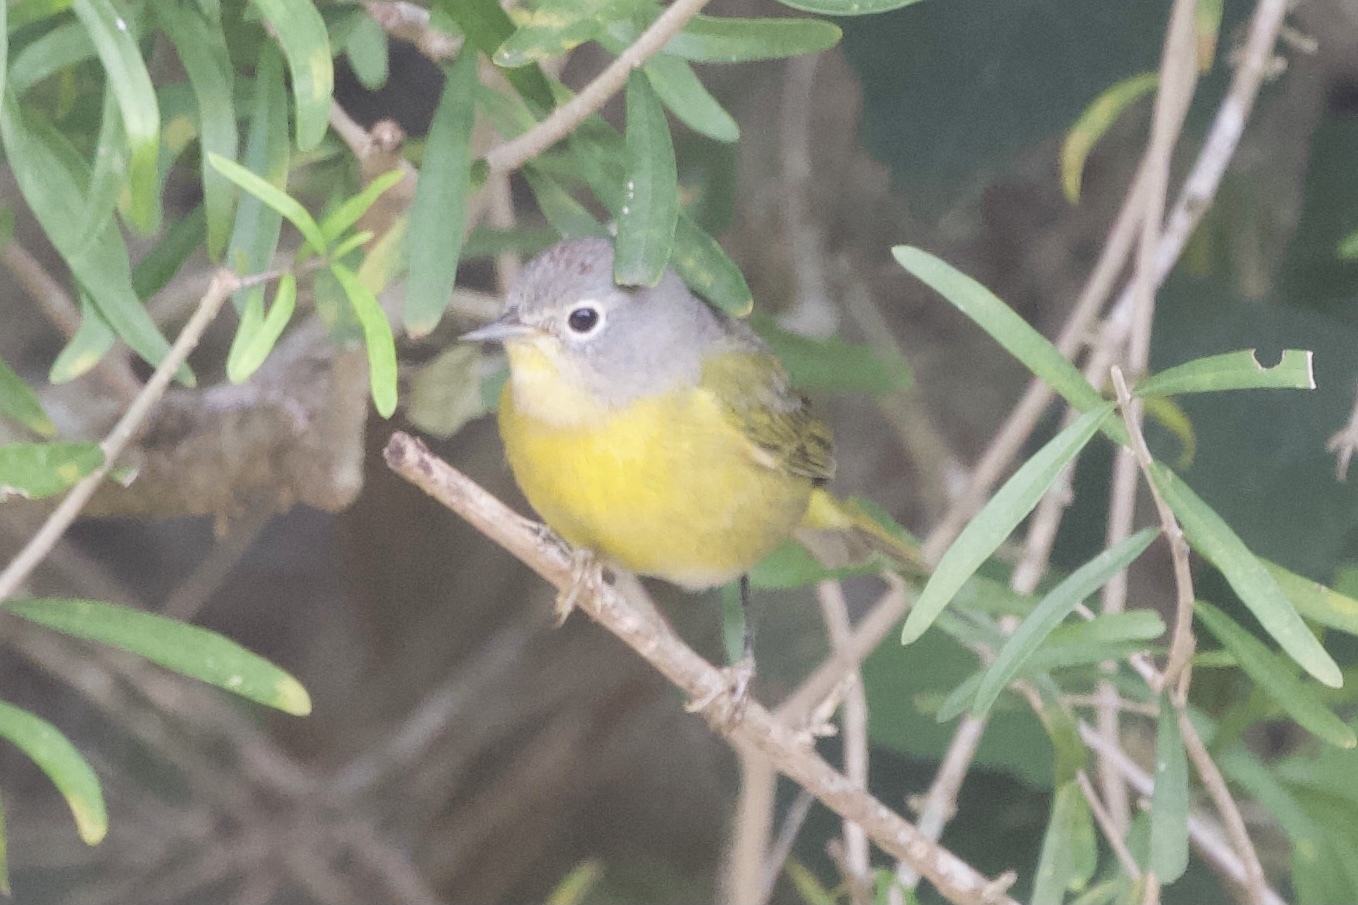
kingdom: Animalia
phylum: Chordata
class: Aves
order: Passeriformes
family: Parulidae
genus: Leiothlypis
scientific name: Leiothlypis ruficapilla
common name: Nashville warbler
